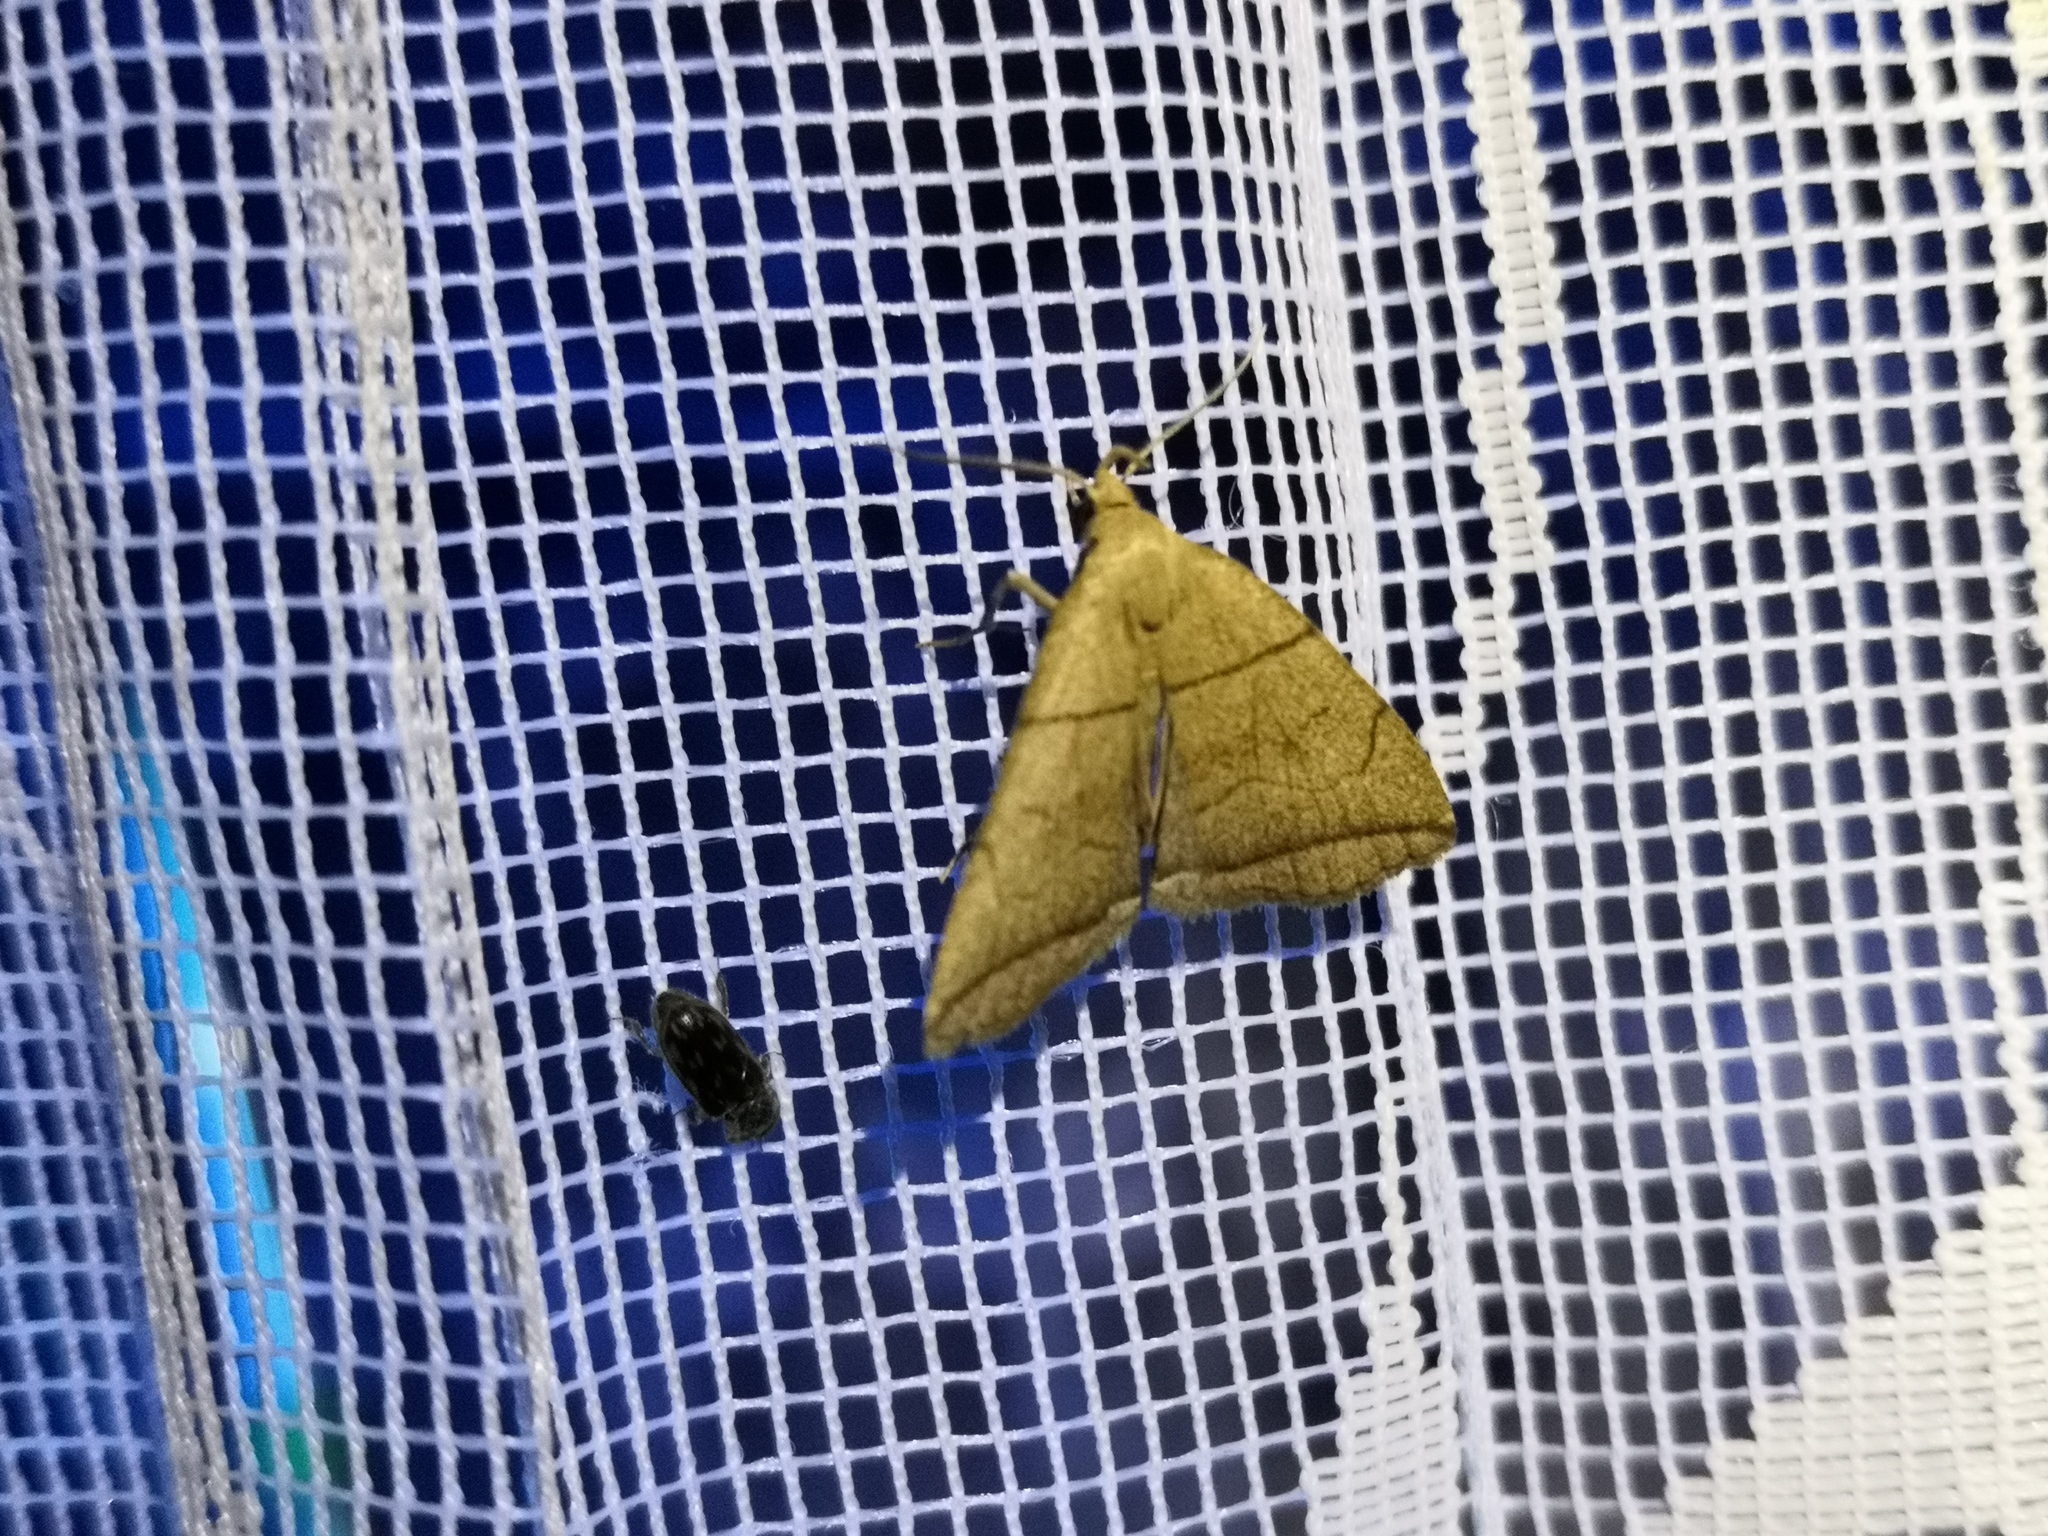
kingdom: Animalia
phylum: Arthropoda
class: Insecta
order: Lepidoptera
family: Erebidae
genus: Herminia
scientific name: Herminia grisealis
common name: Small fan-foot
